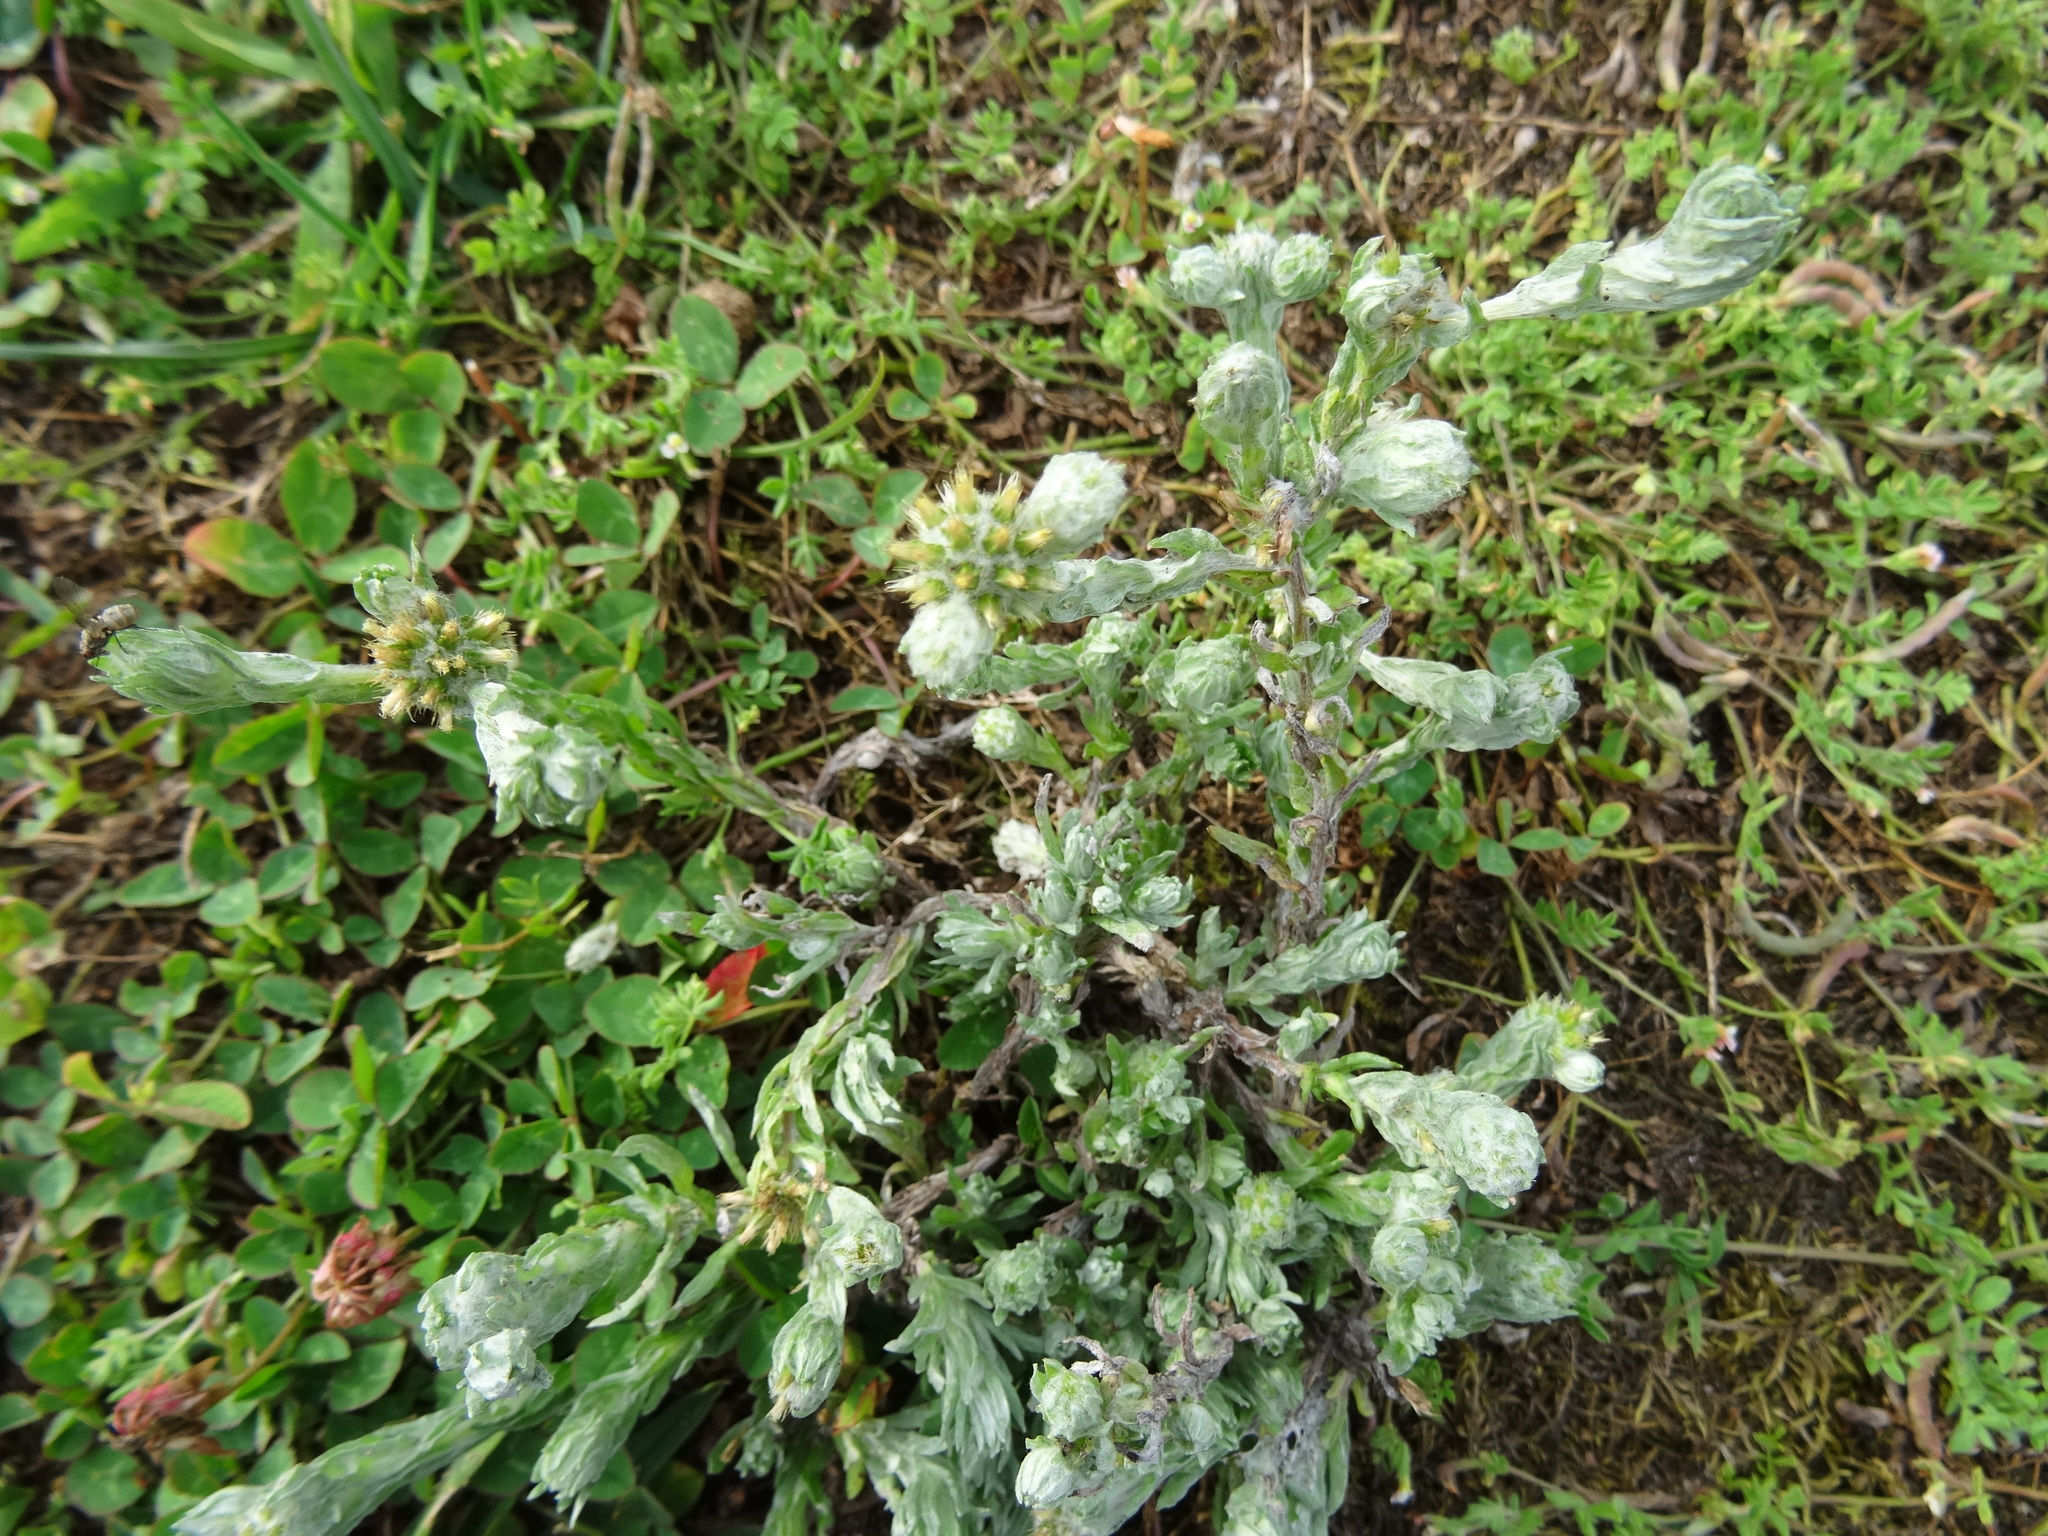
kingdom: Plantae
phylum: Tracheophyta
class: Magnoliopsida
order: Asterales
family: Asteraceae
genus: Filago
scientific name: Filago germanica
